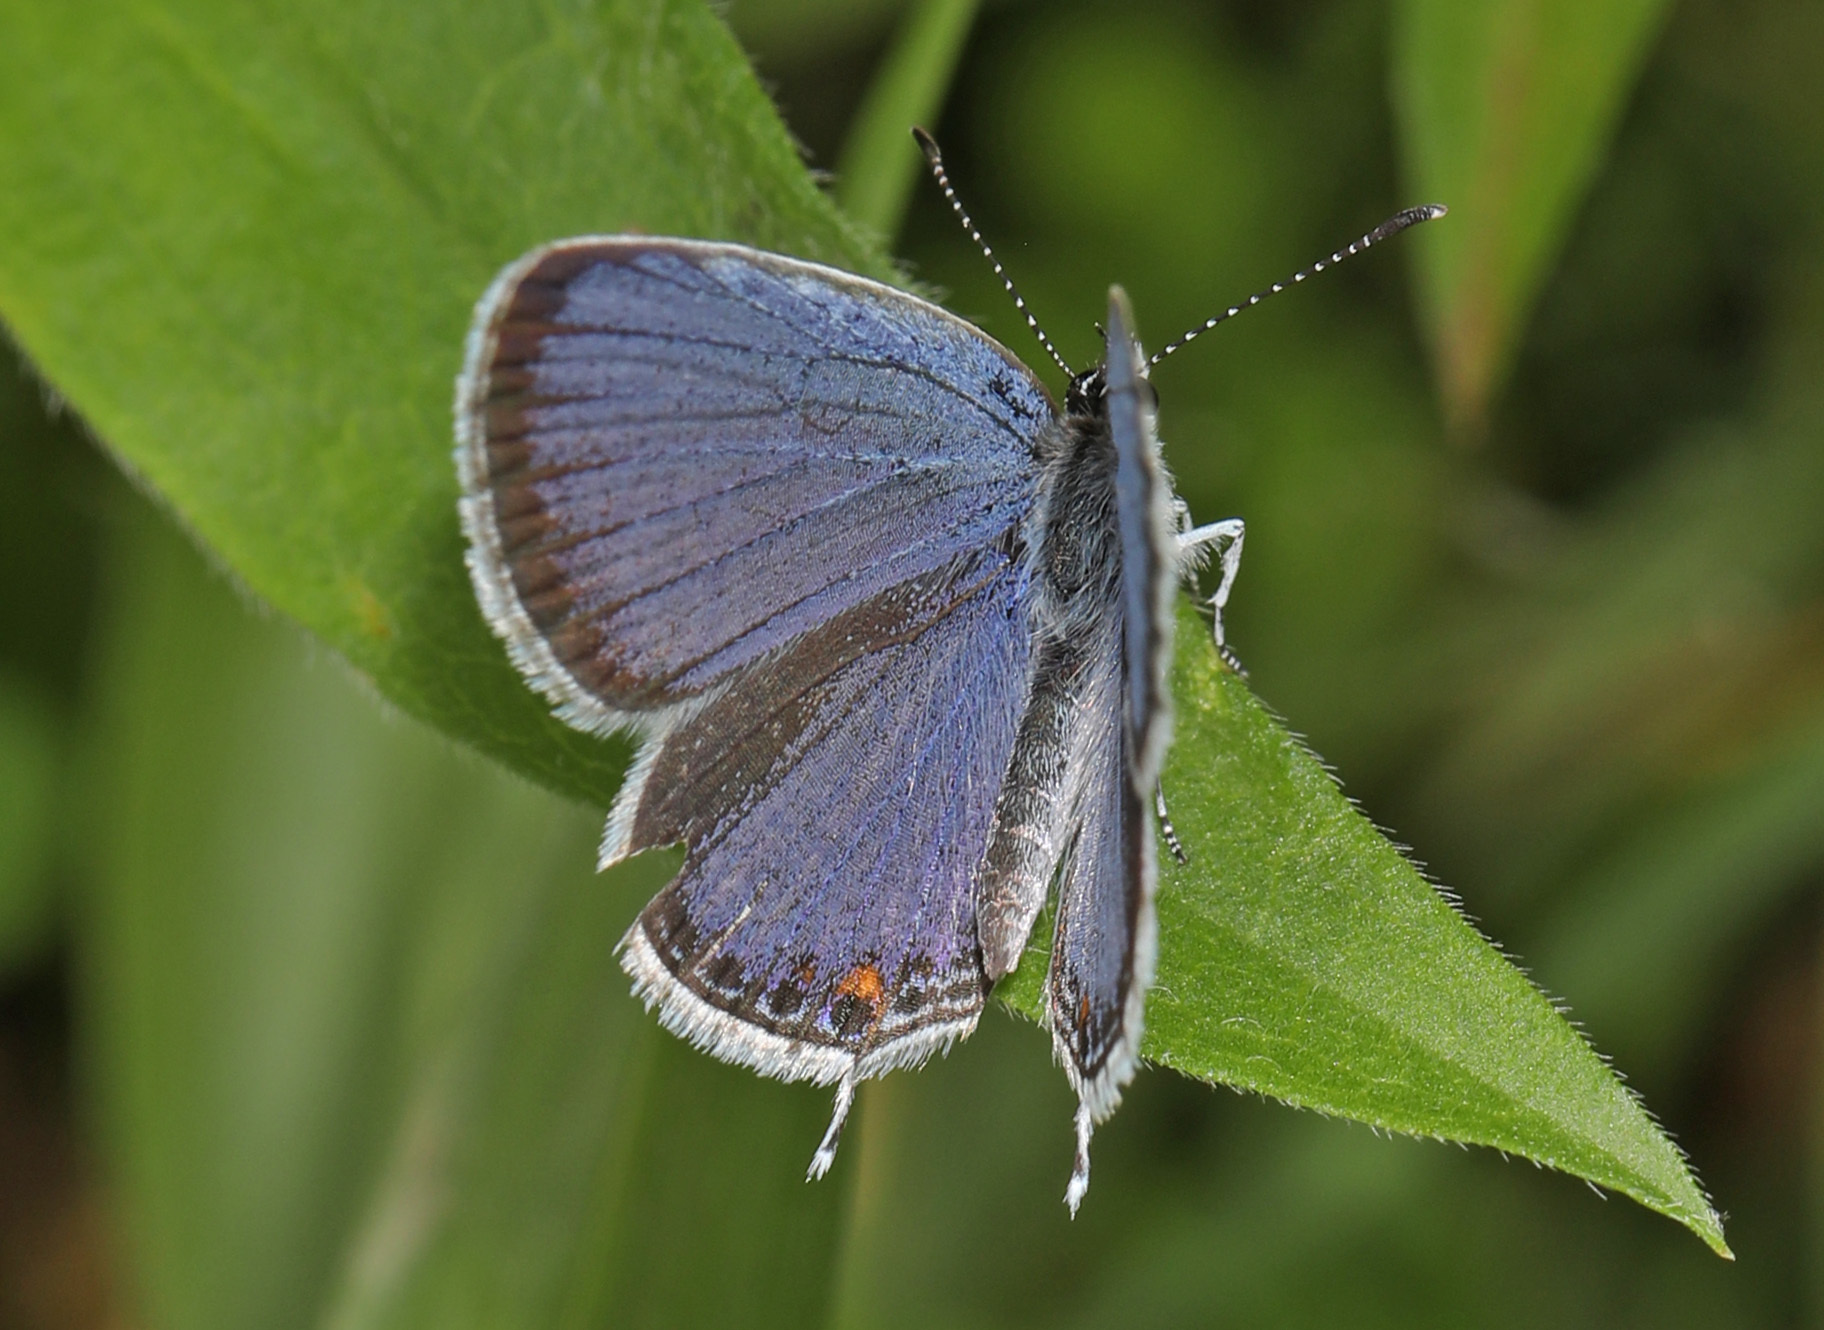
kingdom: Animalia
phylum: Arthropoda
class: Insecta
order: Lepidoptera
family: Lycaenidae
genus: Elkalyce
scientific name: Elkalyce comyntas
